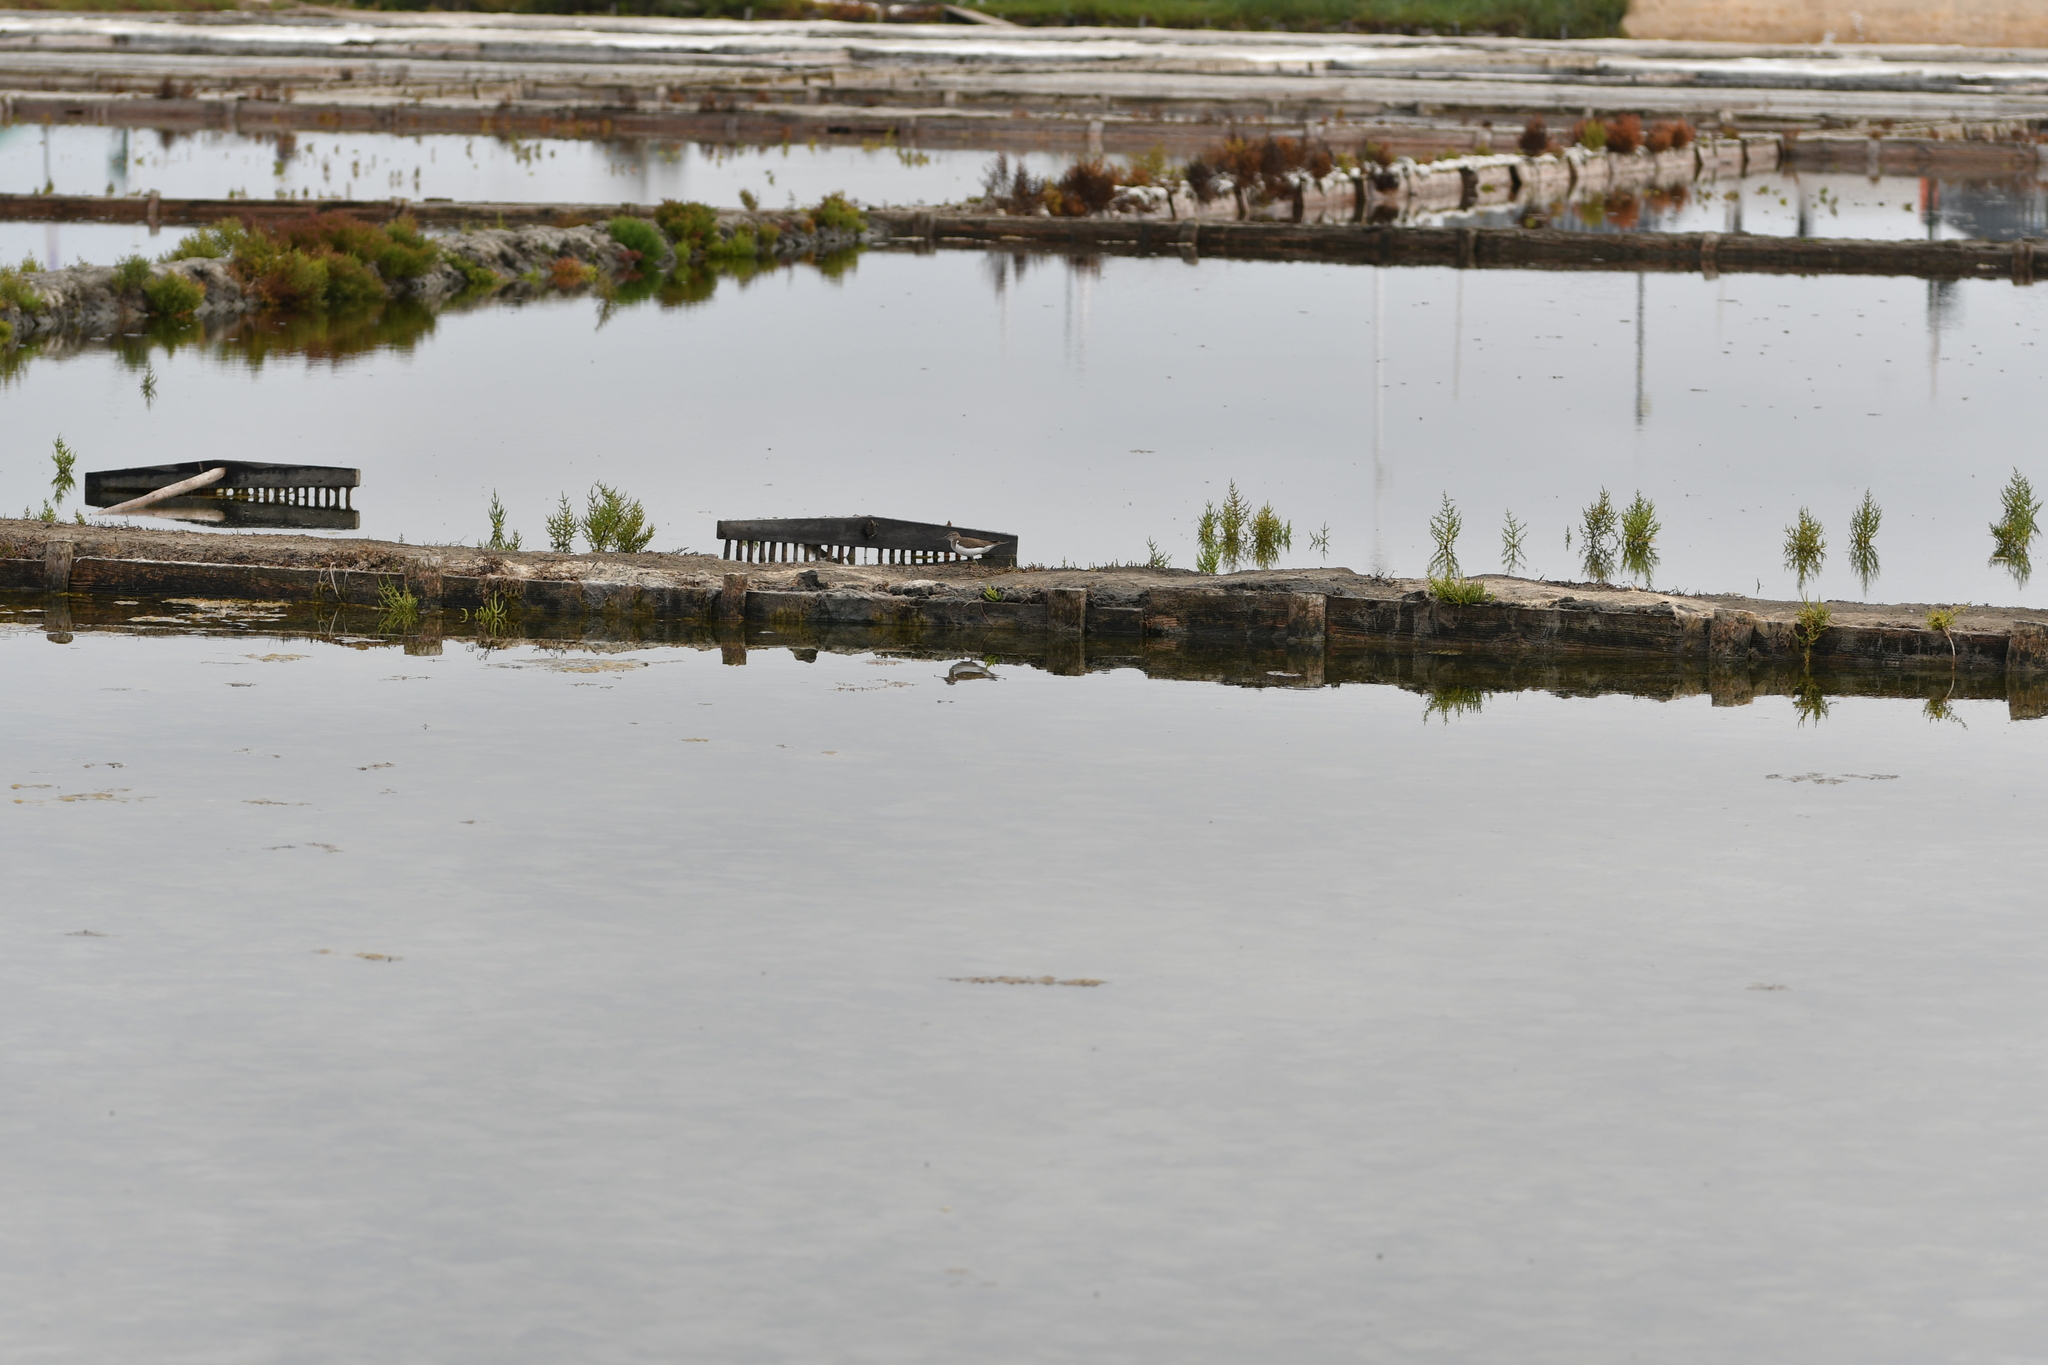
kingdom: Animalia
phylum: Chordata
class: Aves
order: Charadriiformes
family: Scolopacidae
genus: Actitis
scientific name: Actitis hypoleucos
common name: Common sandpiper
